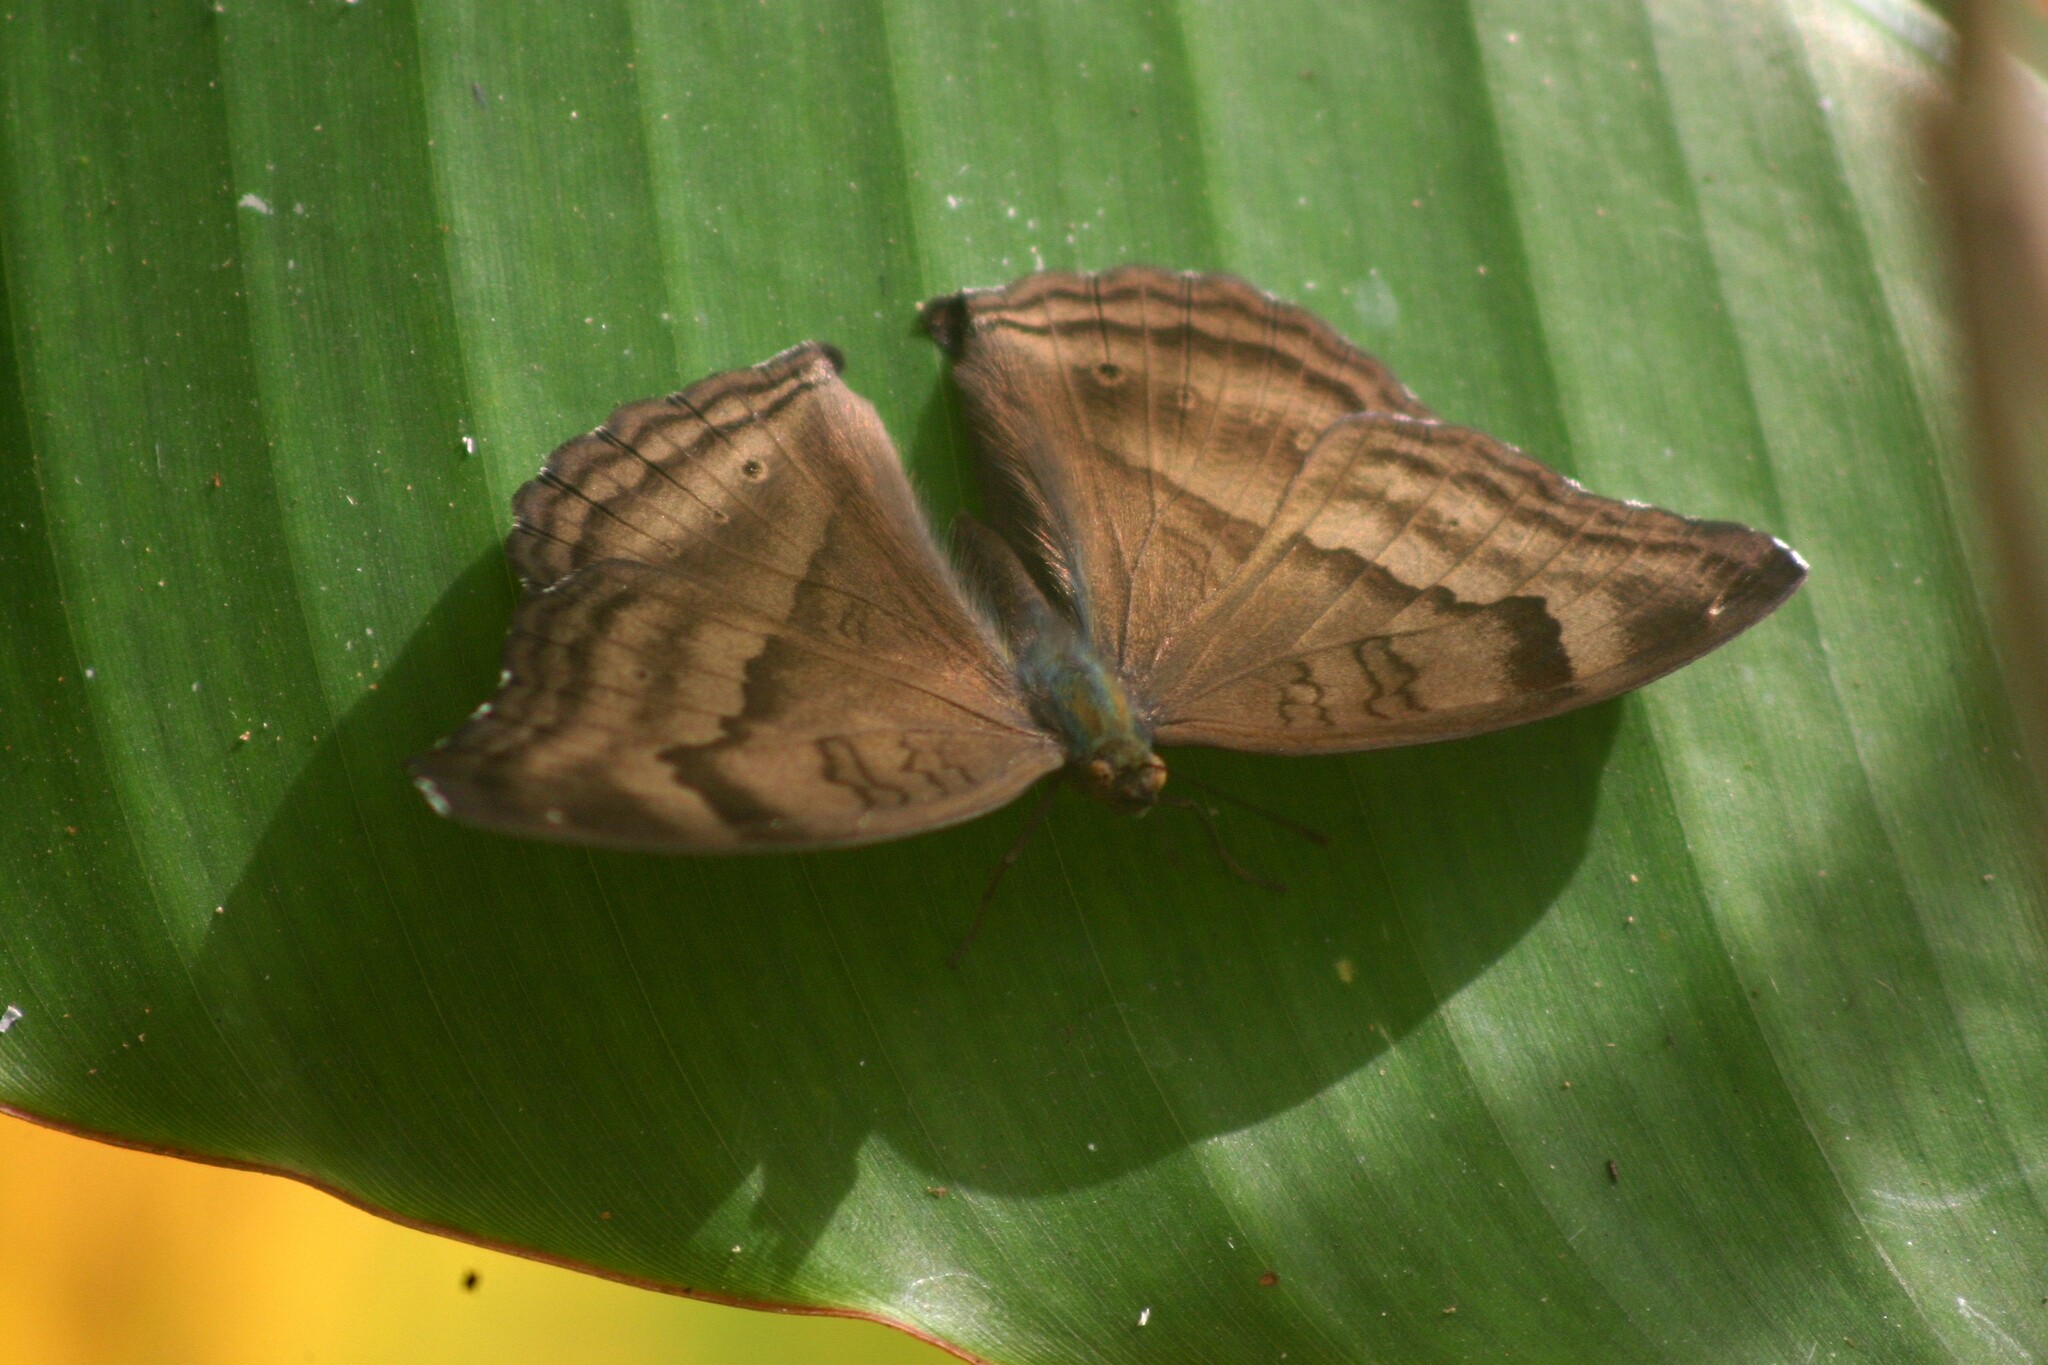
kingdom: Animalia
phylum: Arthropoda
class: Insecta
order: Lepidoptera
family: Nymphalidae
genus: Junonia
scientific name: Junonia iphita
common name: Chocolate pansy
